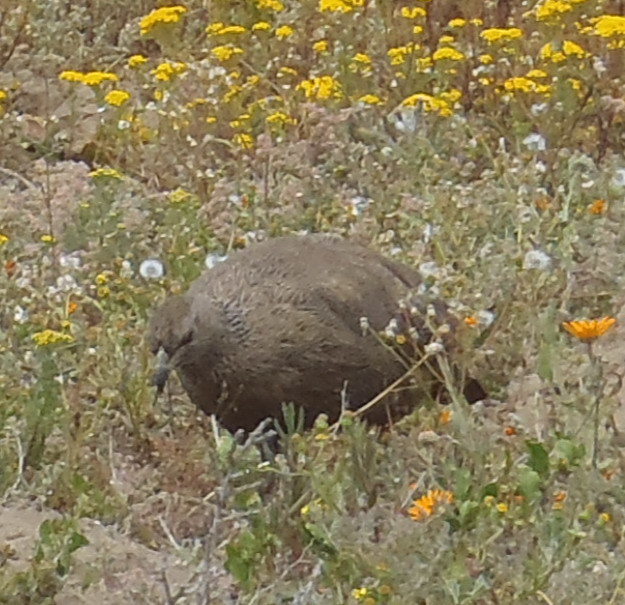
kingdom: Animalia
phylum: Chordata
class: Aves
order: Galliformes
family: Phasianidae
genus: Pternistis
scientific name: Pternistis capensis
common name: Cape spurfowl
